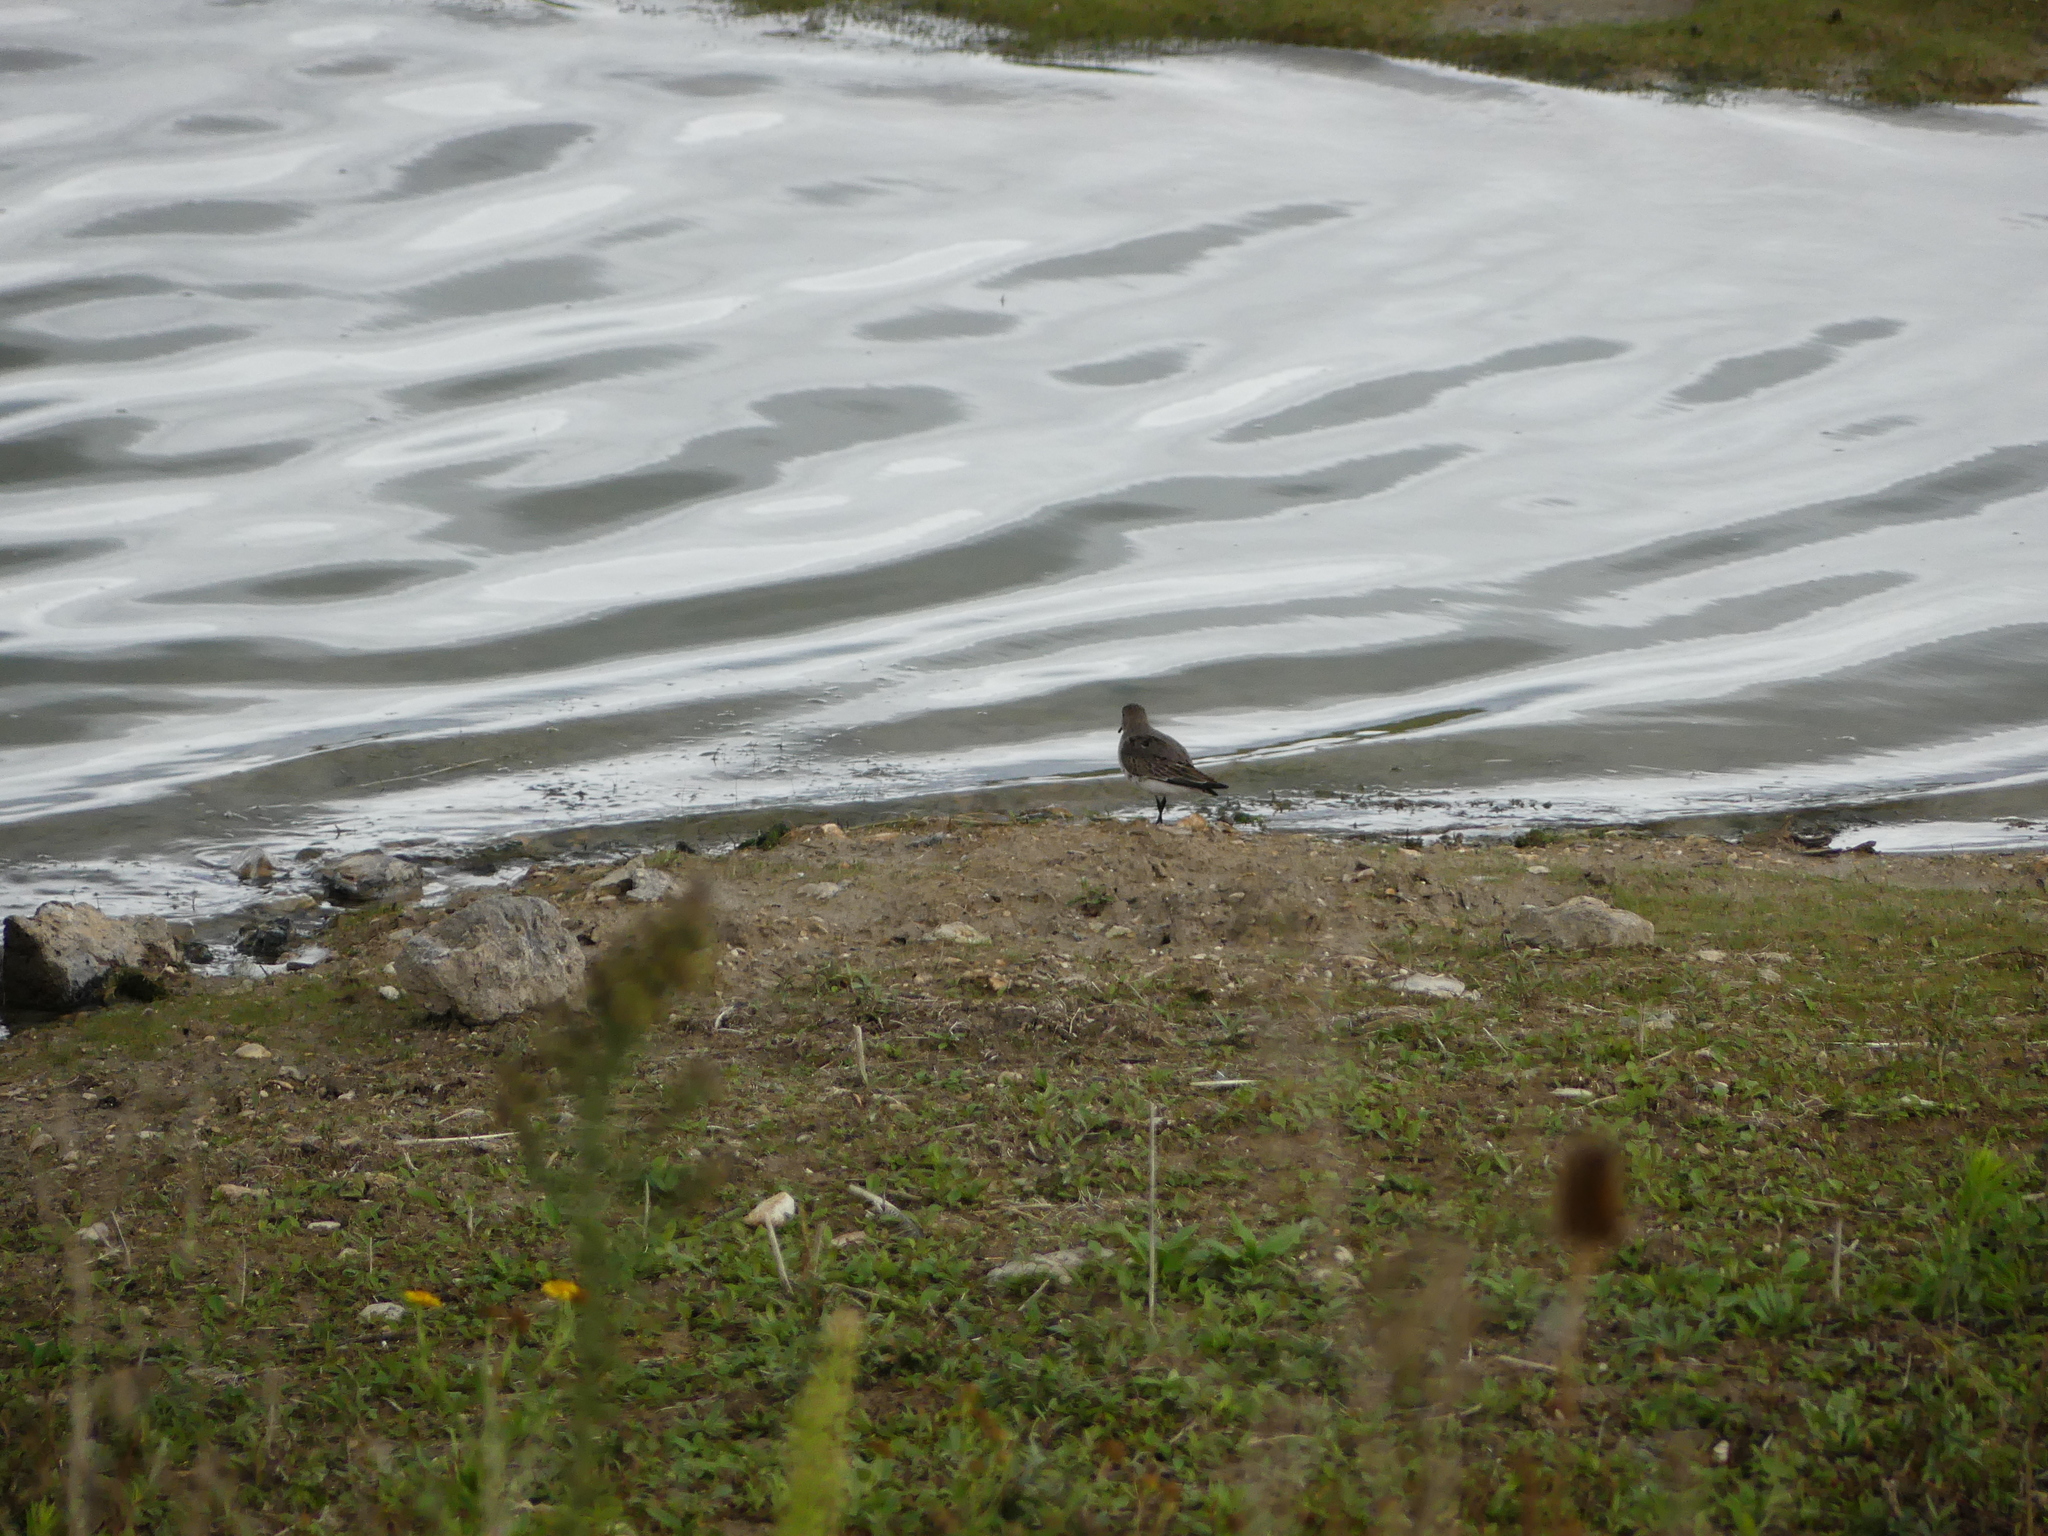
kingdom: Animalia
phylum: Chordata
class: Aves
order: Charadriiformes
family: Scolopacidae
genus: Calidris
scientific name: Calidris alpina
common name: Dunlin
